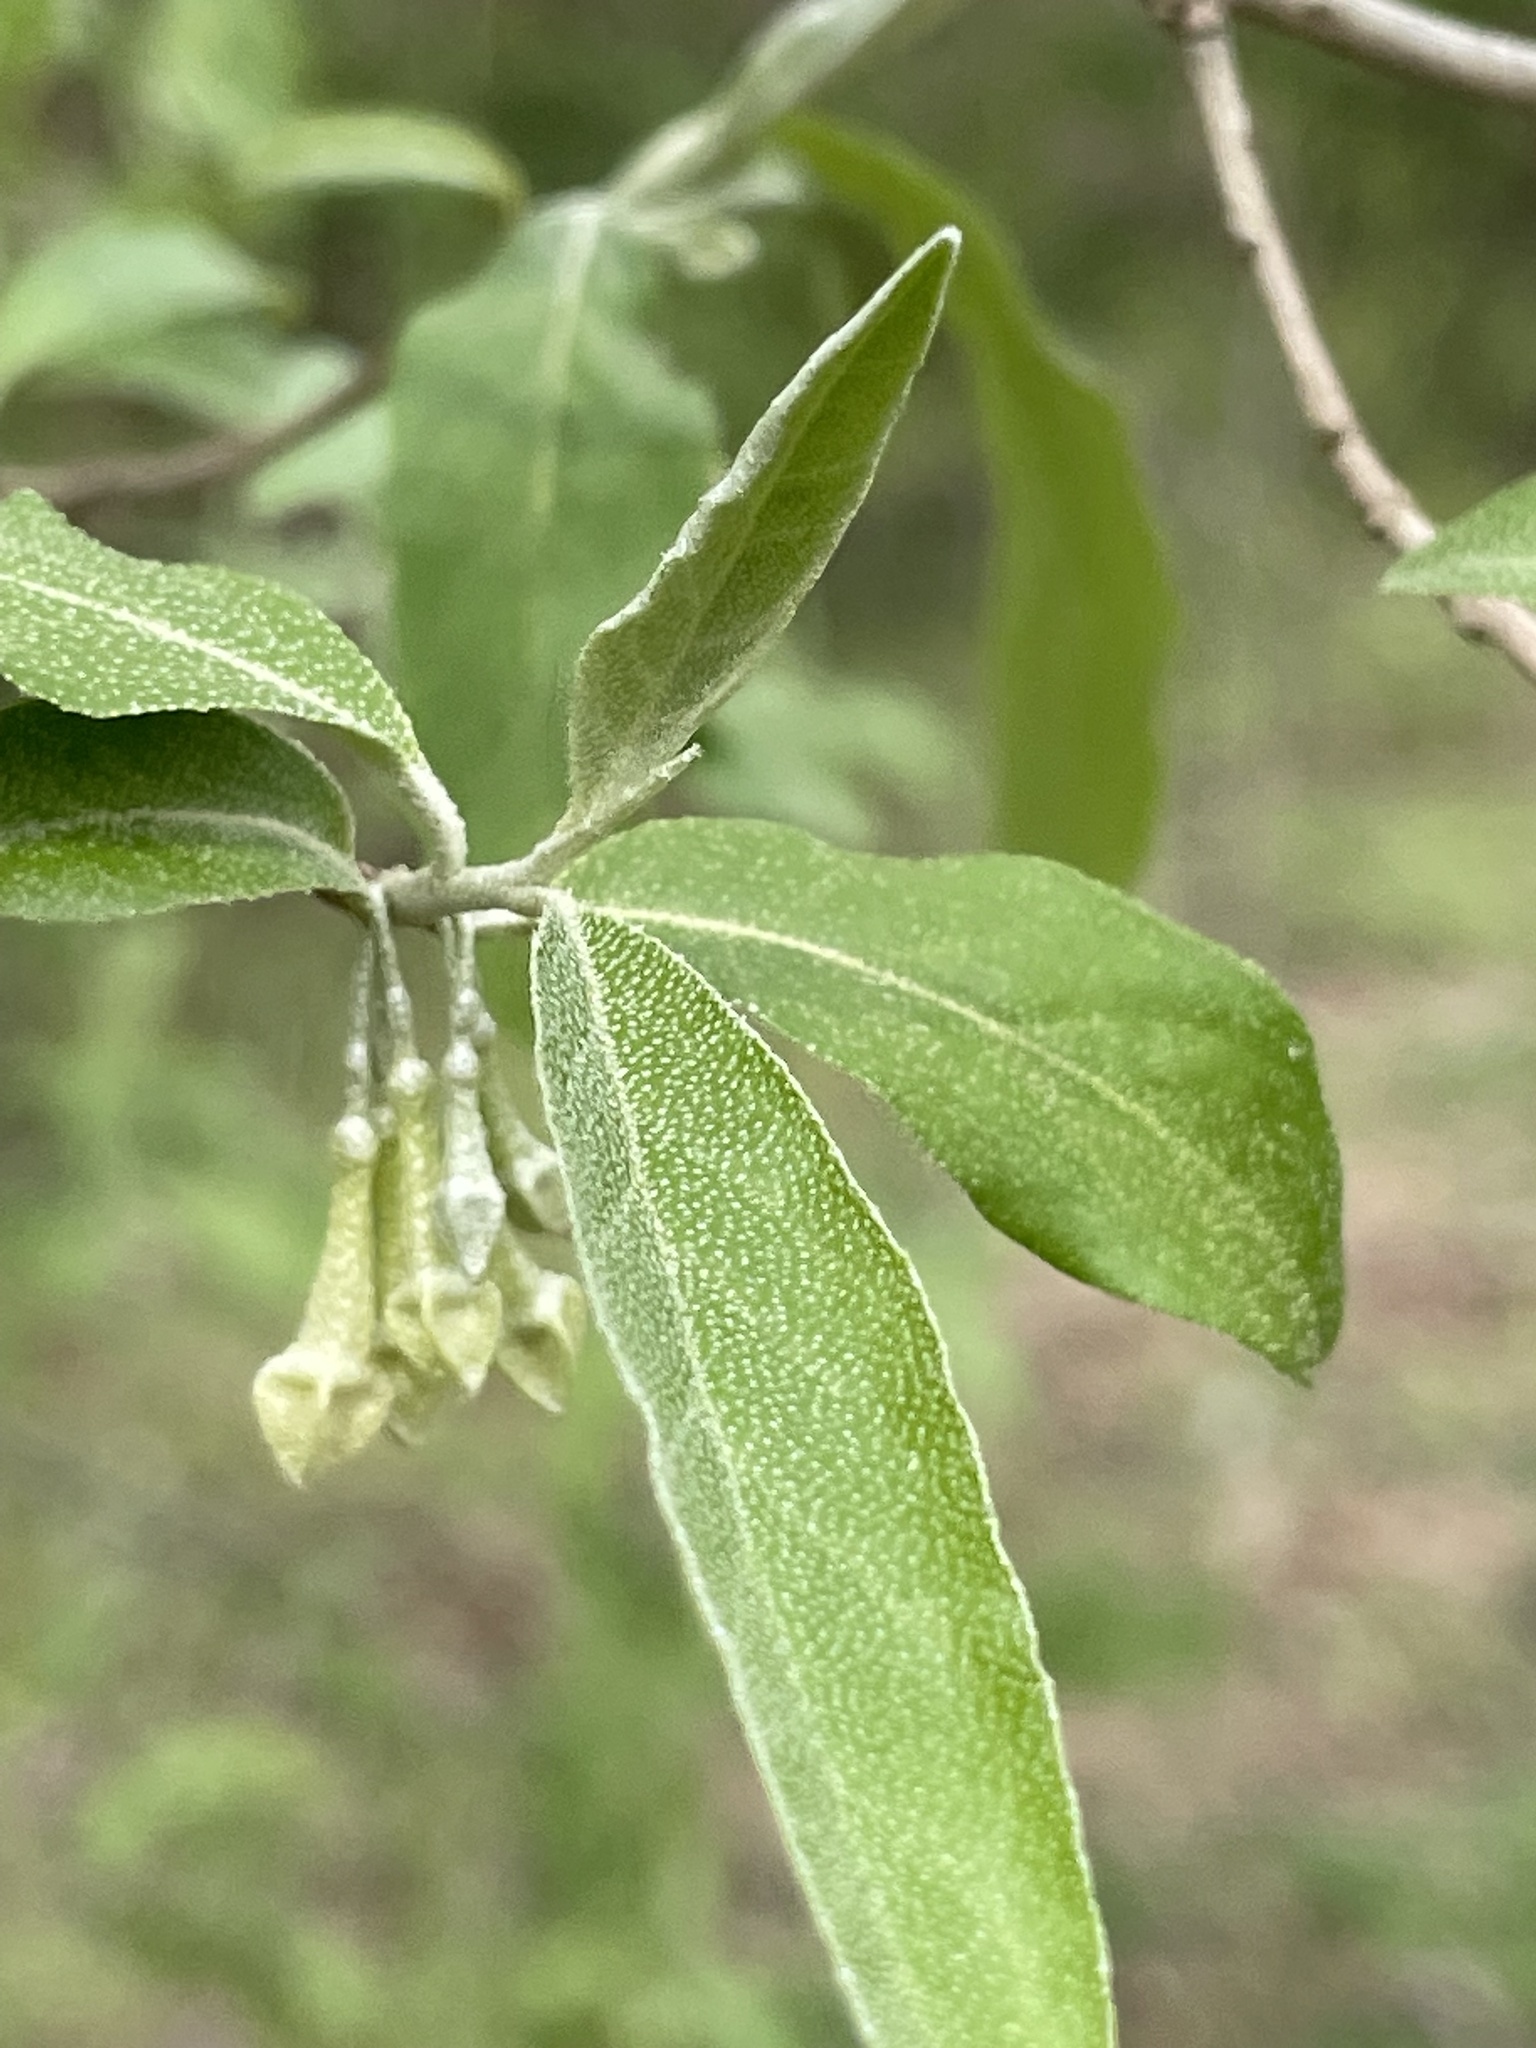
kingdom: Plantae
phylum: Tracheophyta
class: Magnoliopsida
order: Rosales
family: Elaeagnaceae
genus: Elaeagnus
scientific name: Elaeagnus umbellata
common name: Autumn olive
